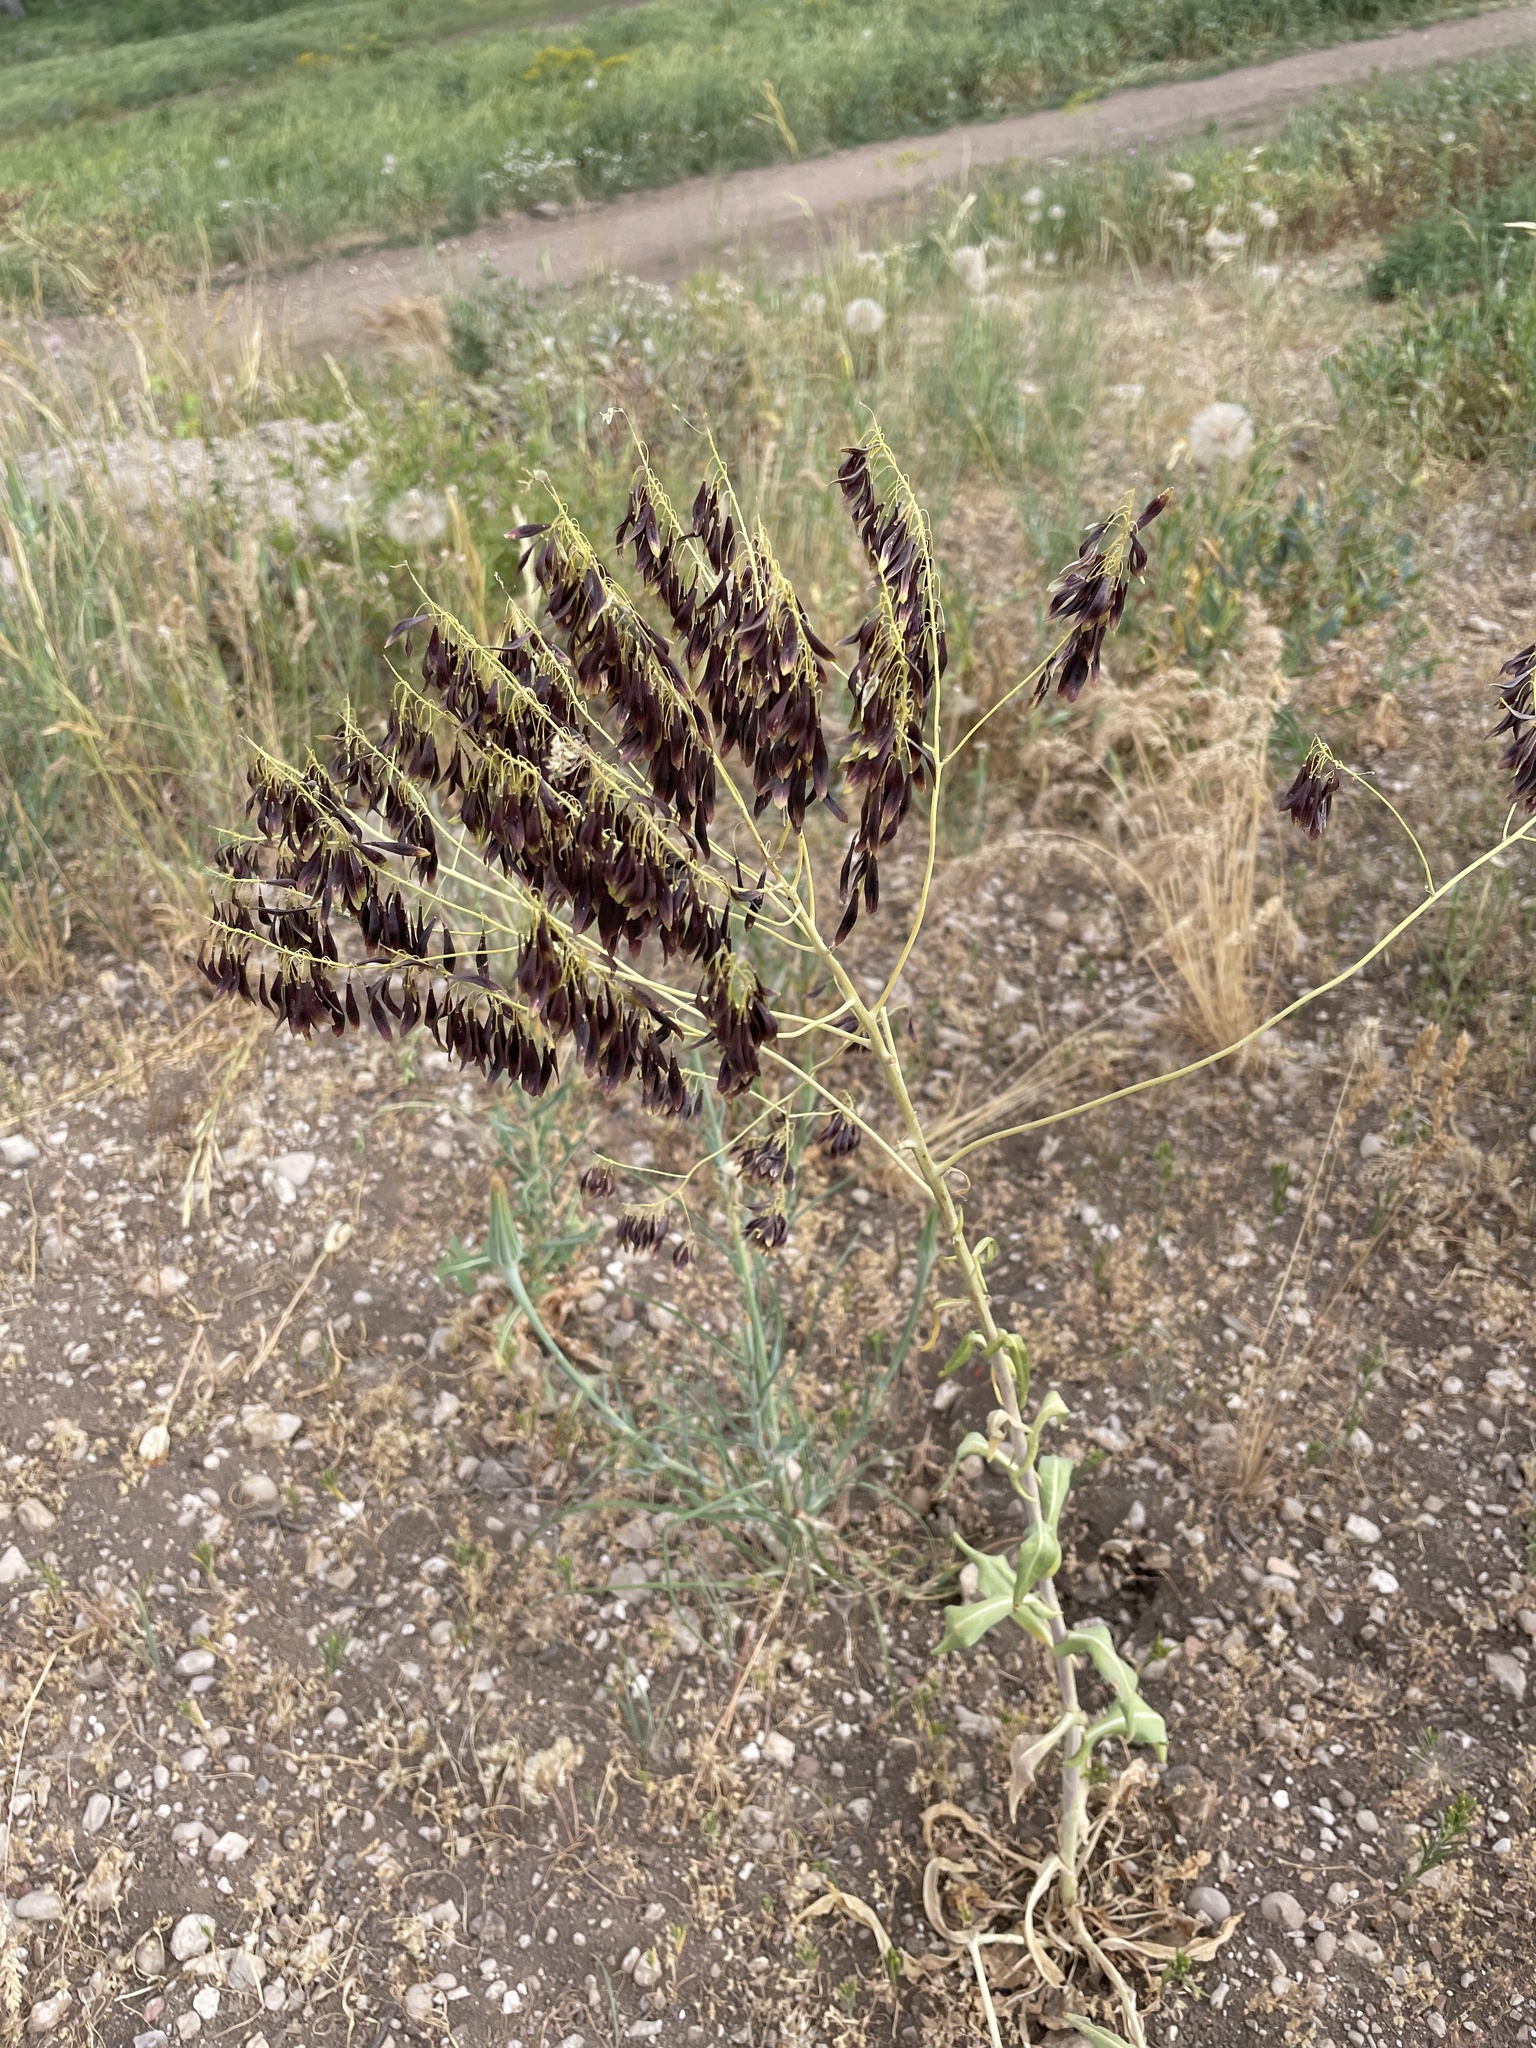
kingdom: Plantae
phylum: Tracheophyta
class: Magnoliopsida
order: Brassicales
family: Brassicaceae
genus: Isatis
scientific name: Isatis tinctoria
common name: Woad
